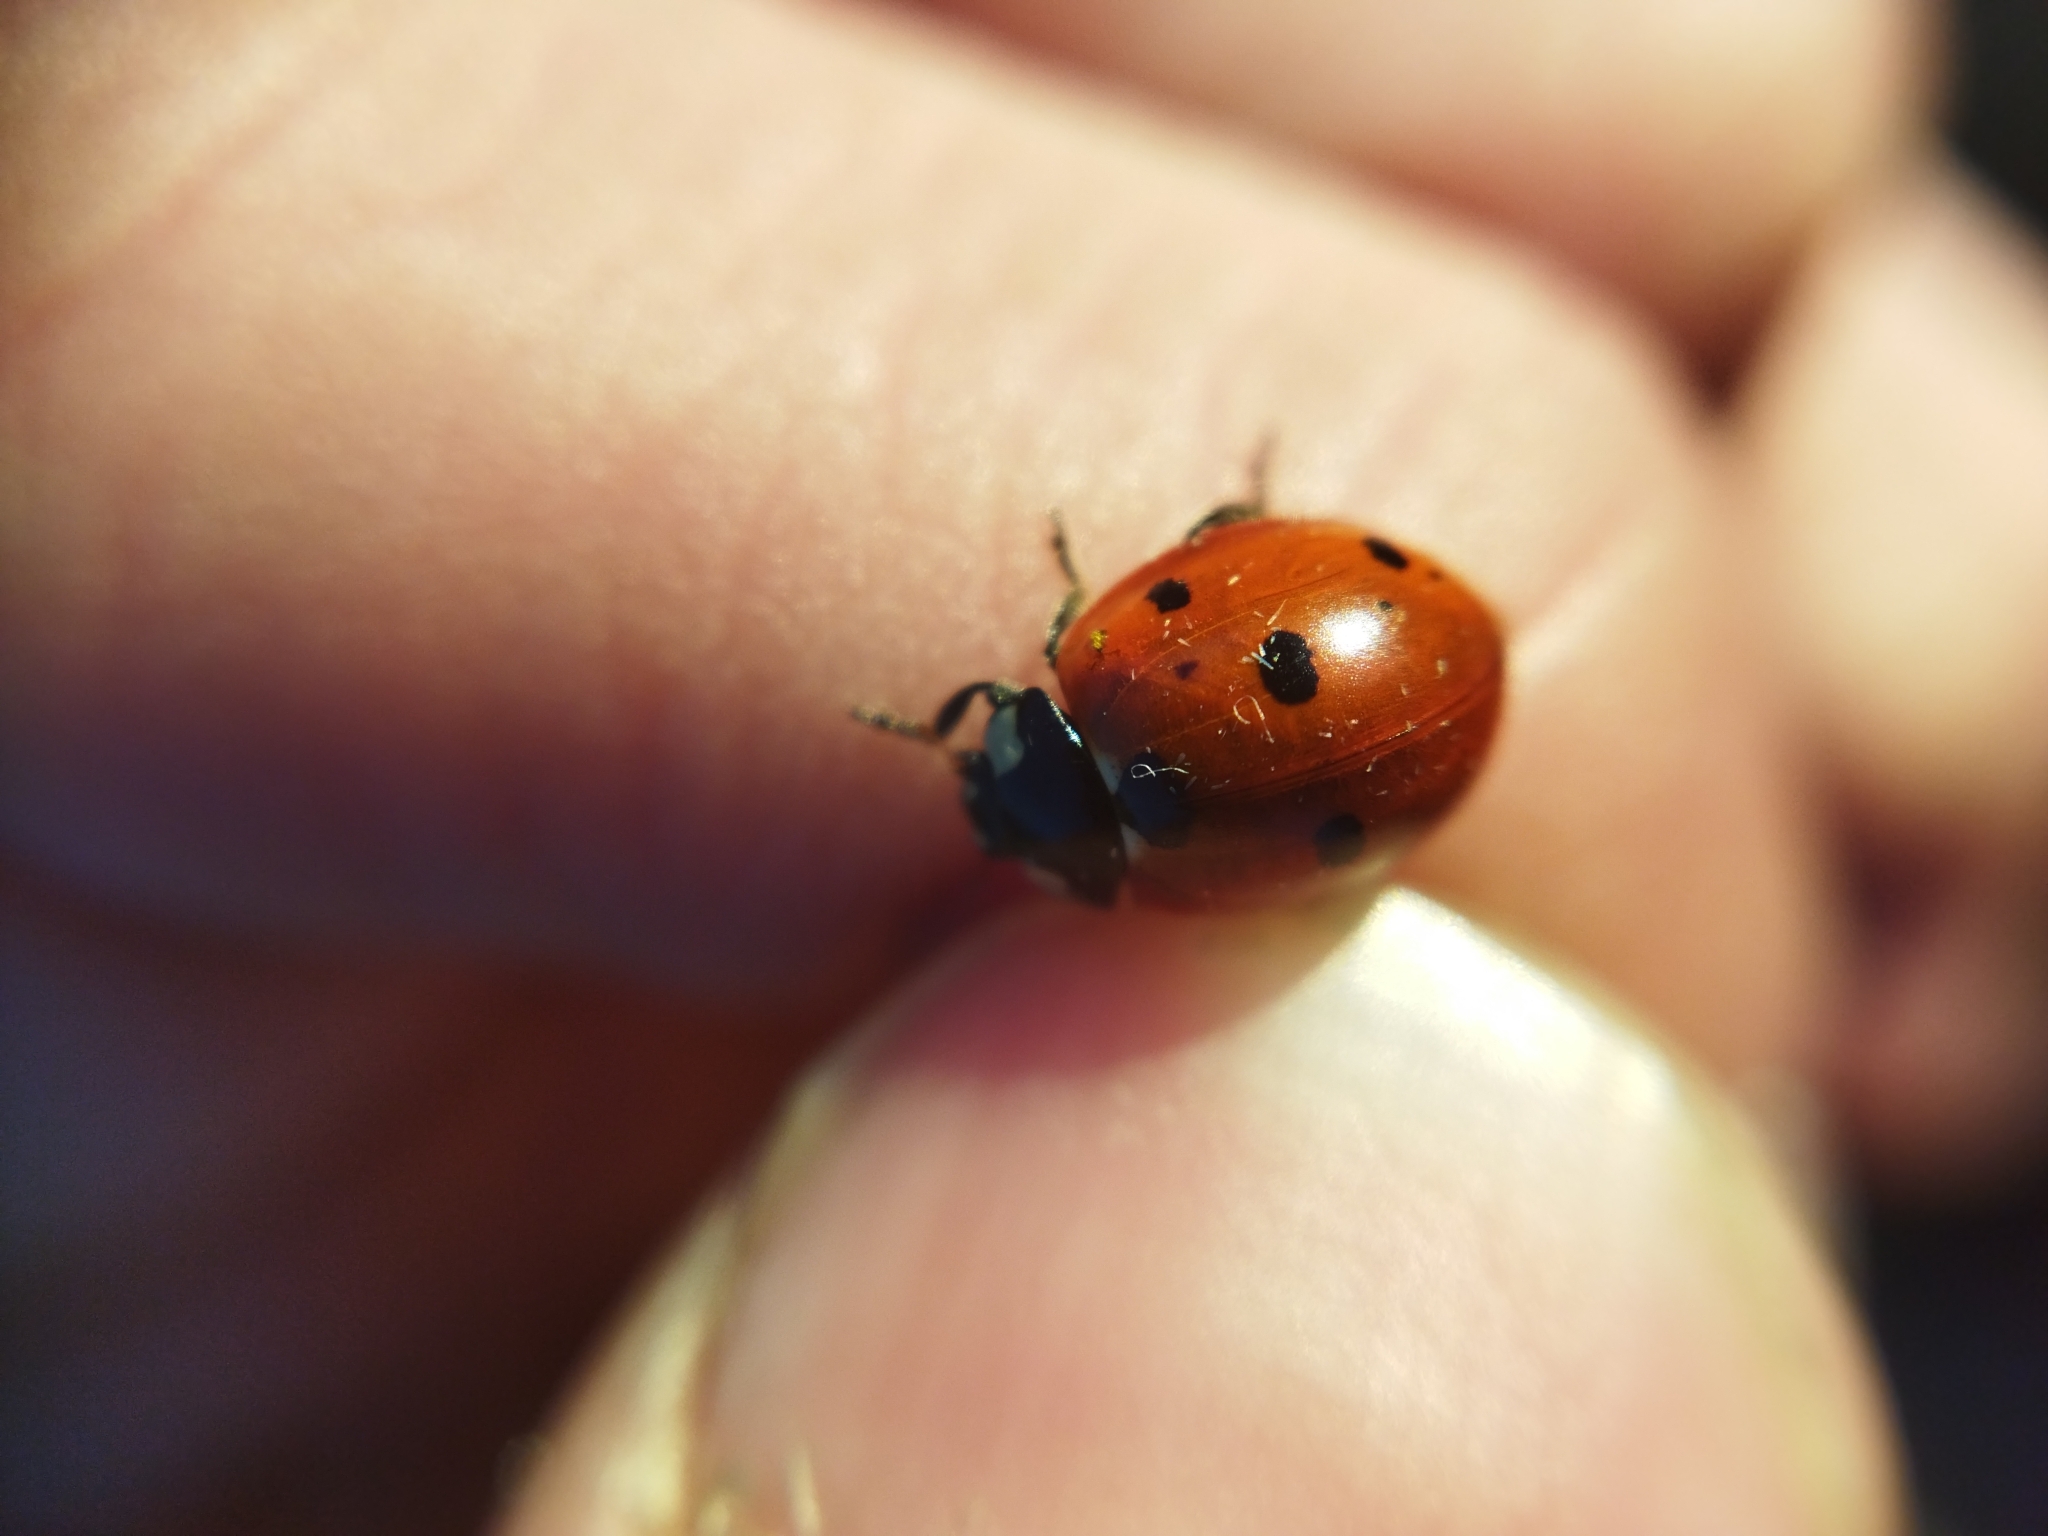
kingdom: Animalia
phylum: Arthropoda
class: Insecta
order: Coleoptera
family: Coccinellidae
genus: Coccinella
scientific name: Coccinella septempunctata
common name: Sevenspotted lady beetle
